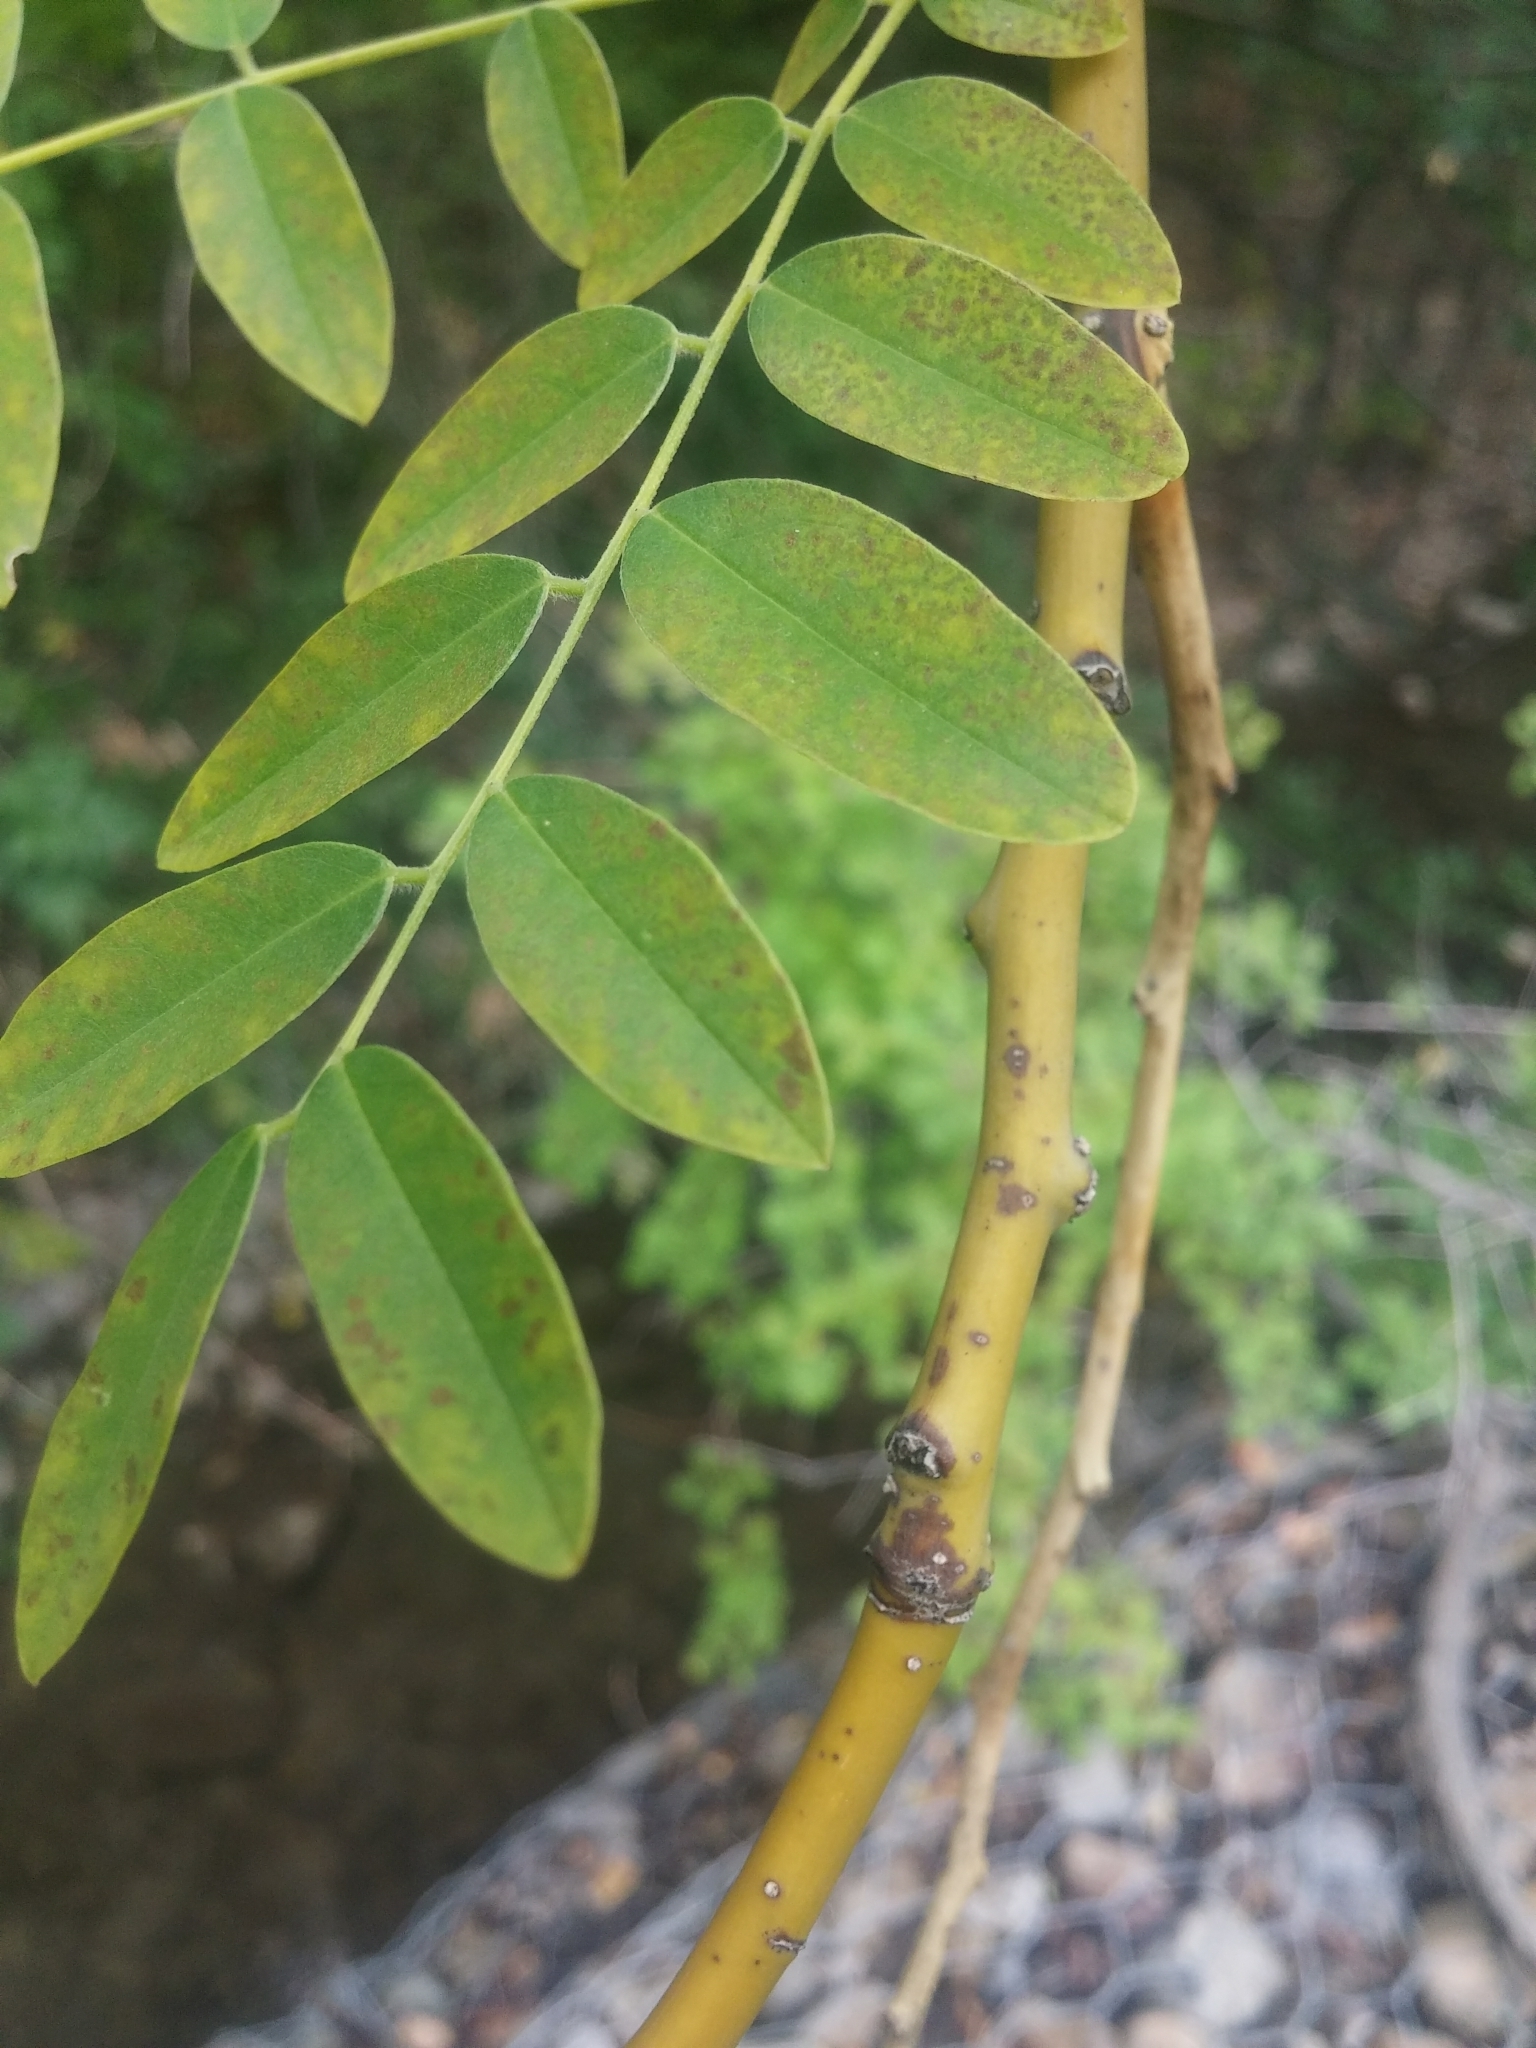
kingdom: Plantae
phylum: Tracheophyta
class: Magnoliopsida
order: Fabales
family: Fabaceae
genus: Styphnolobium
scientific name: Styphnolobium japonicum
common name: Chinese scholartree
